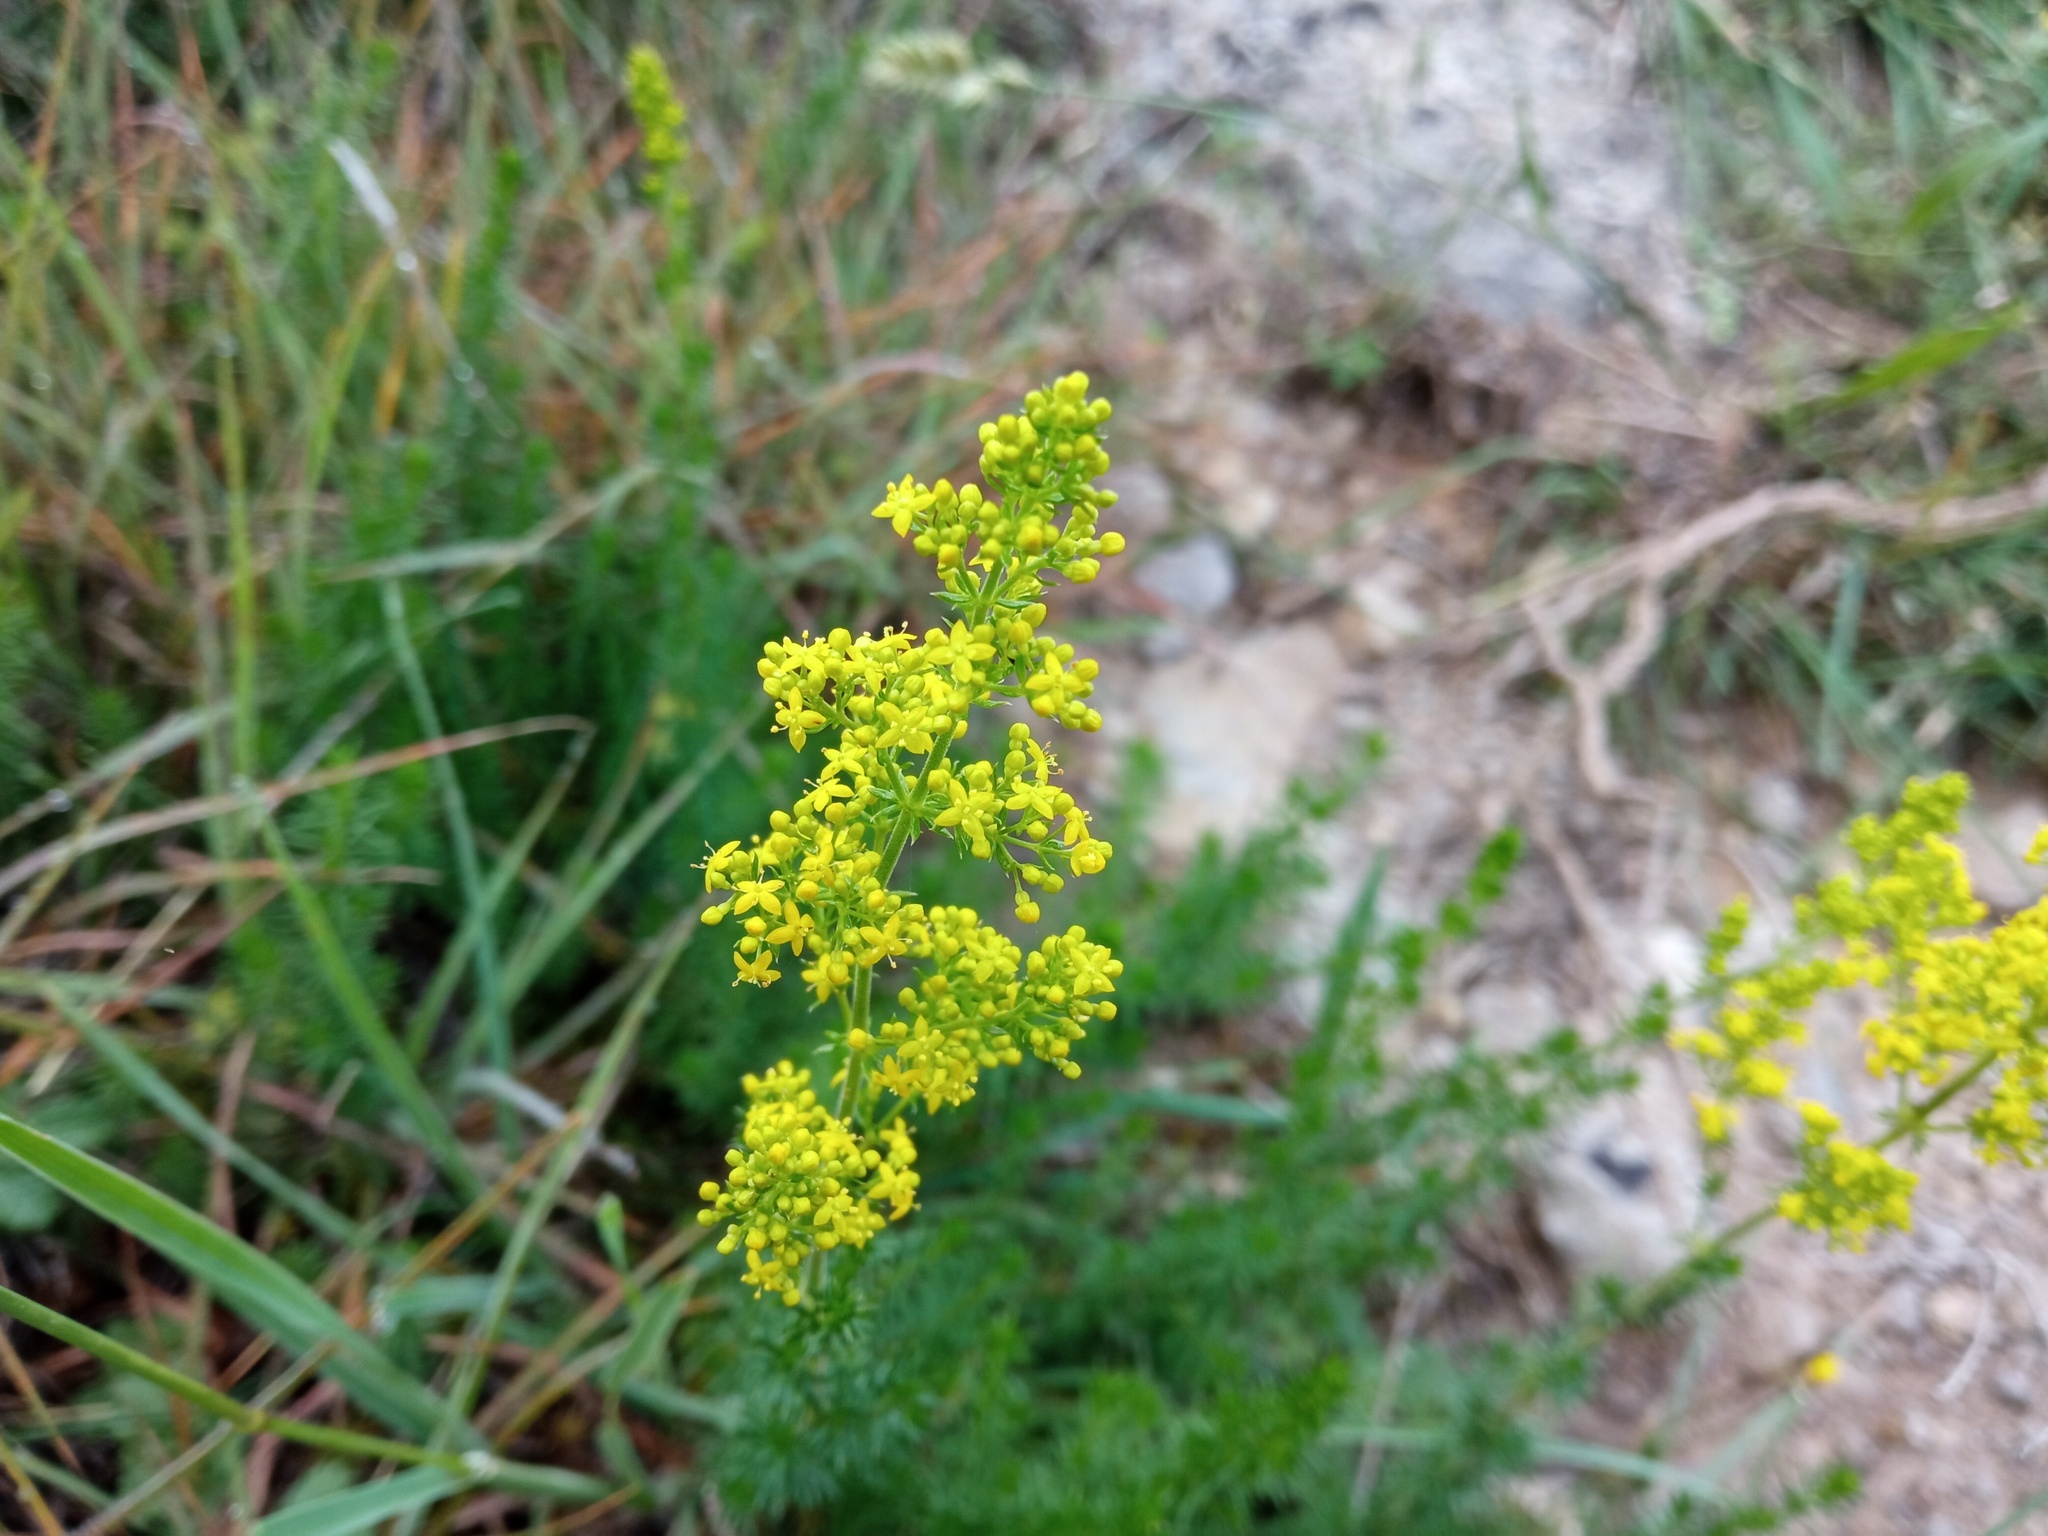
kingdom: Plantae
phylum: Tracheophyta
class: Magnoliopsida
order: Gentianales
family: Rubiaceae
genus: Galium
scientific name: Galium verum
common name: Lady's bedstraw
